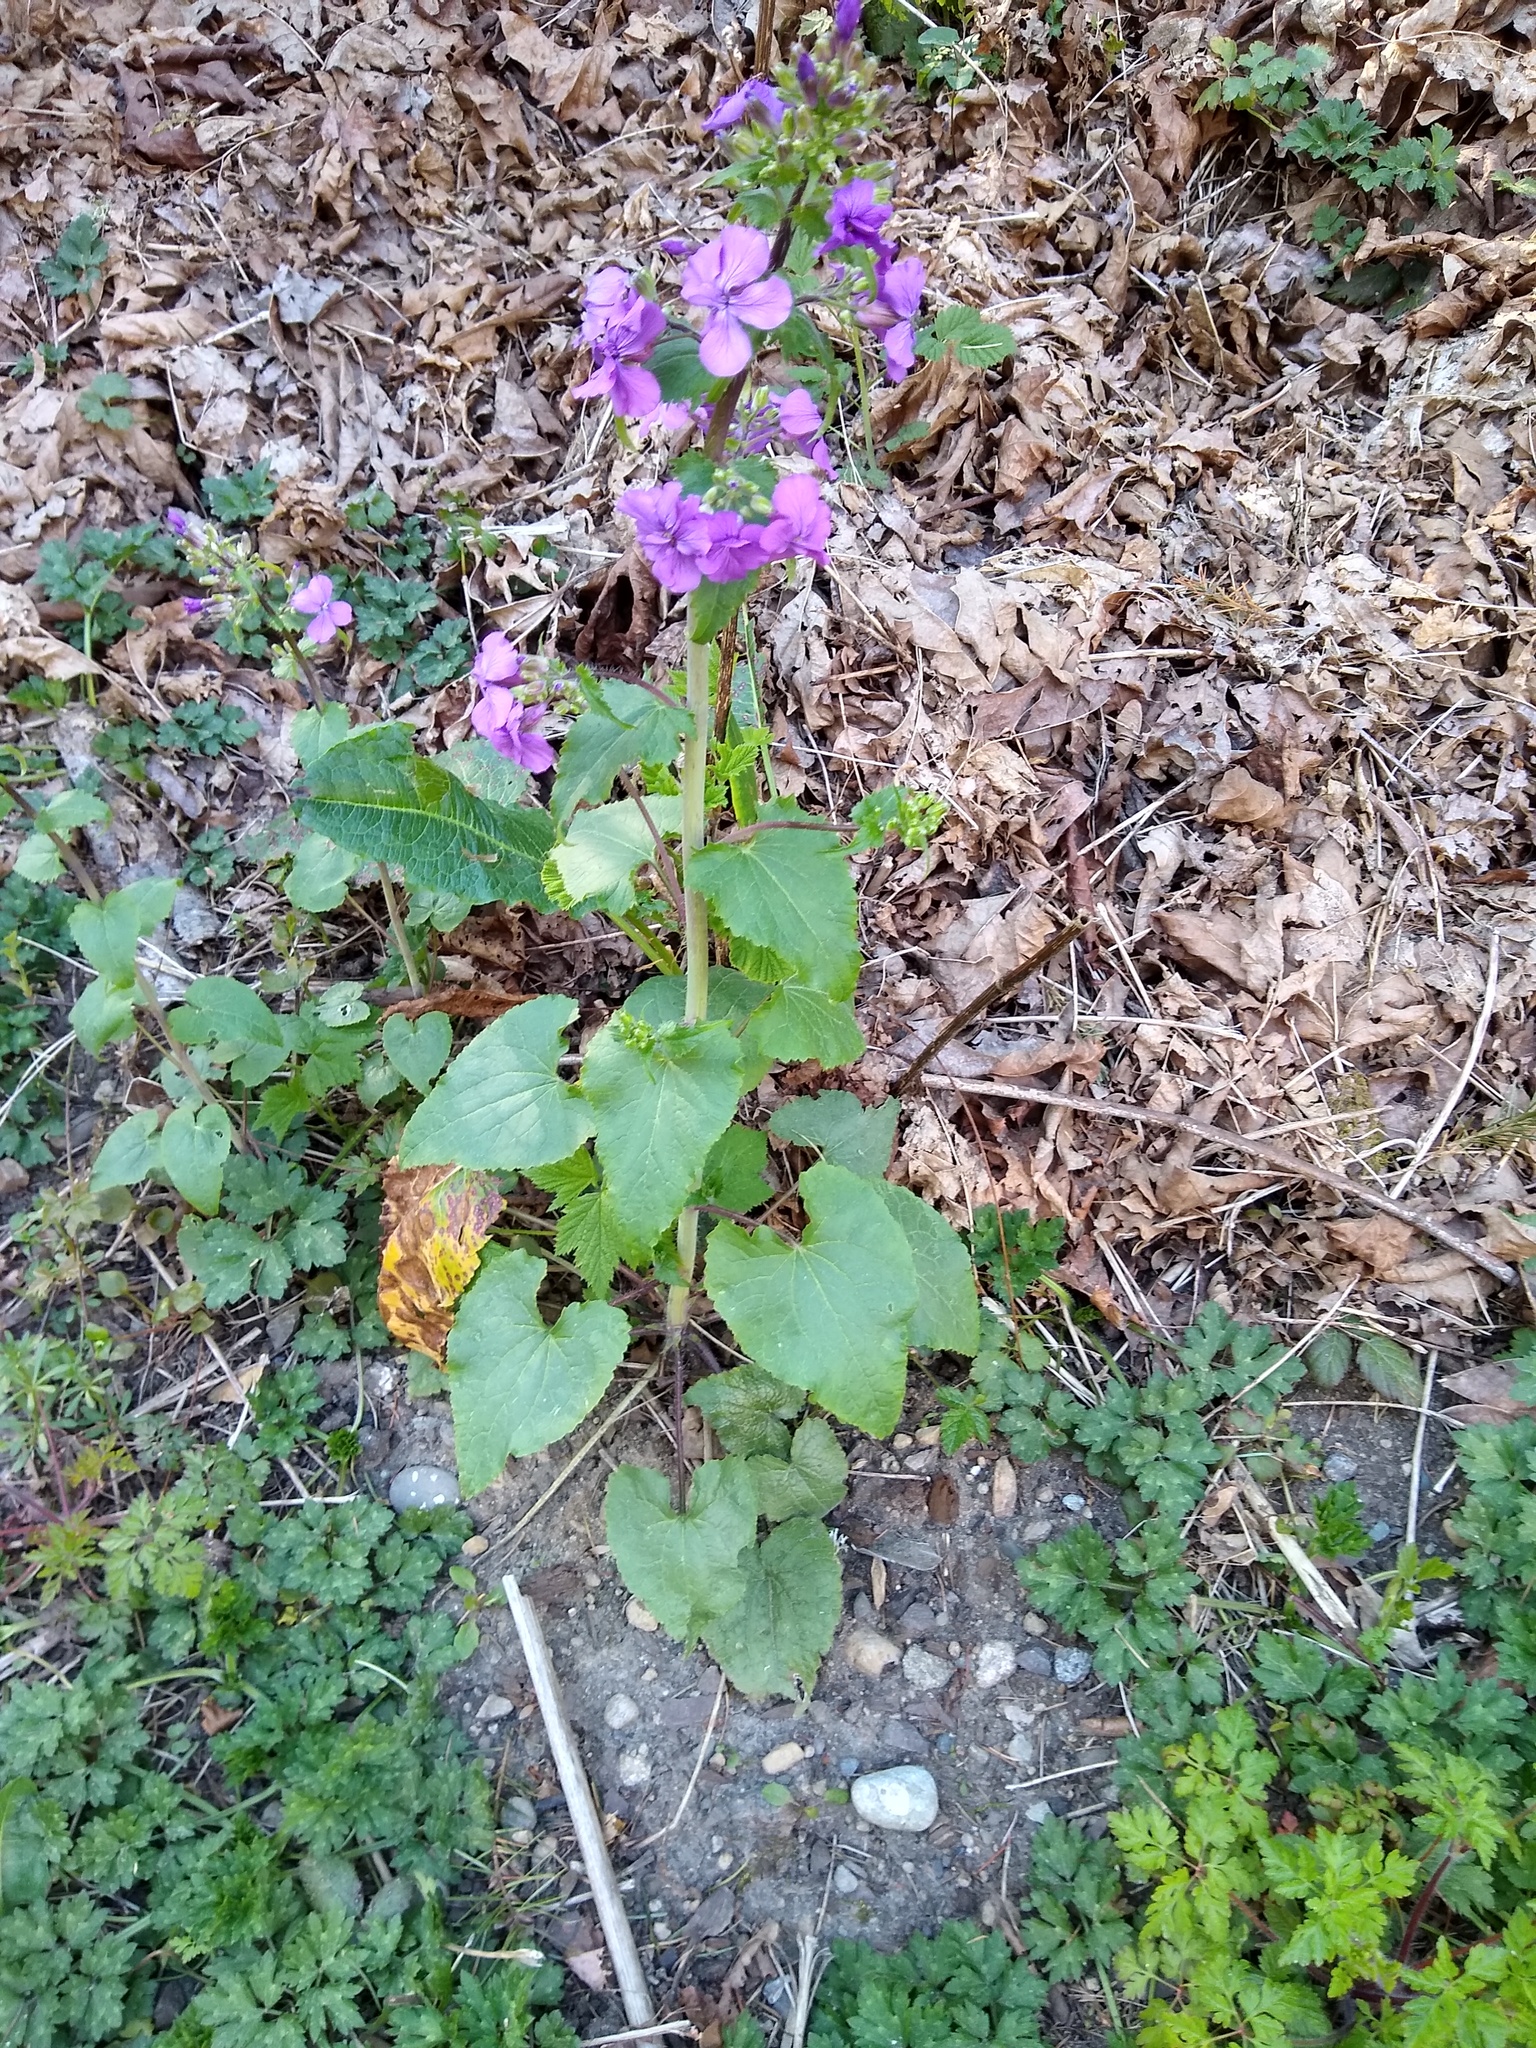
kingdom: Plantae
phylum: Tracheophyta
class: Magnoliopsida
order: Brassicales
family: Brassicaceae
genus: Lunaria
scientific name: Lunaria annua
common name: Honesty
